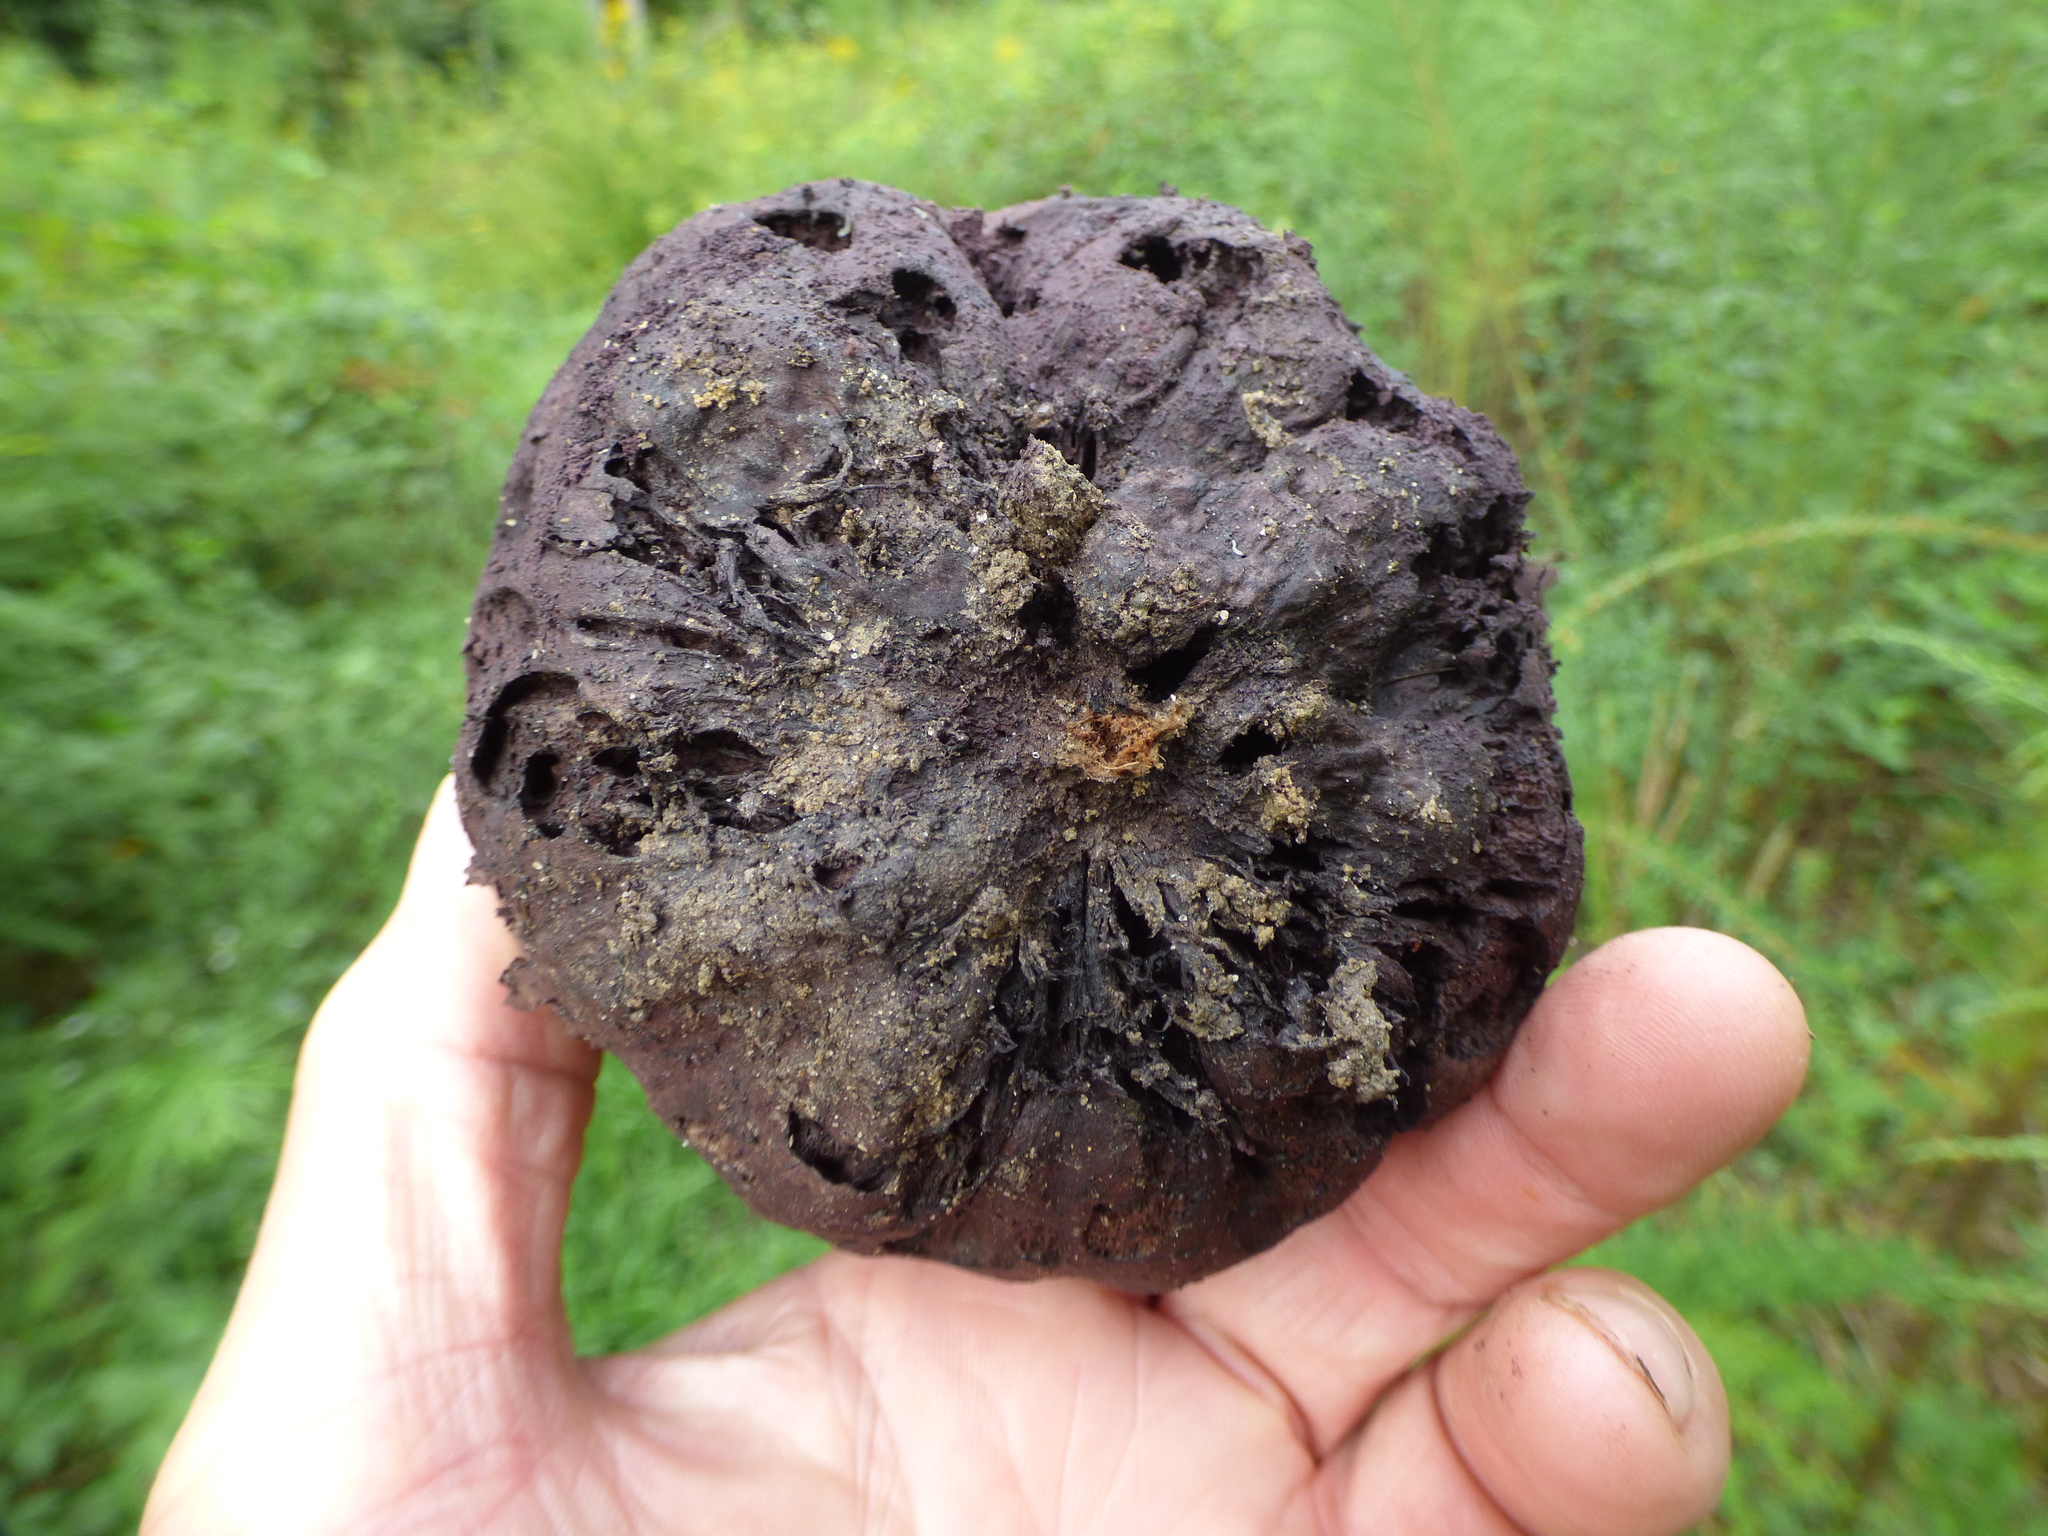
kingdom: Fungi
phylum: Basidiomycota
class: Agaricomycetes
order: Agaricales
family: Lycoperdaceae
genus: Calvatia
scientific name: Calvatia cyathiformis
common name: Purple-spored puffball
